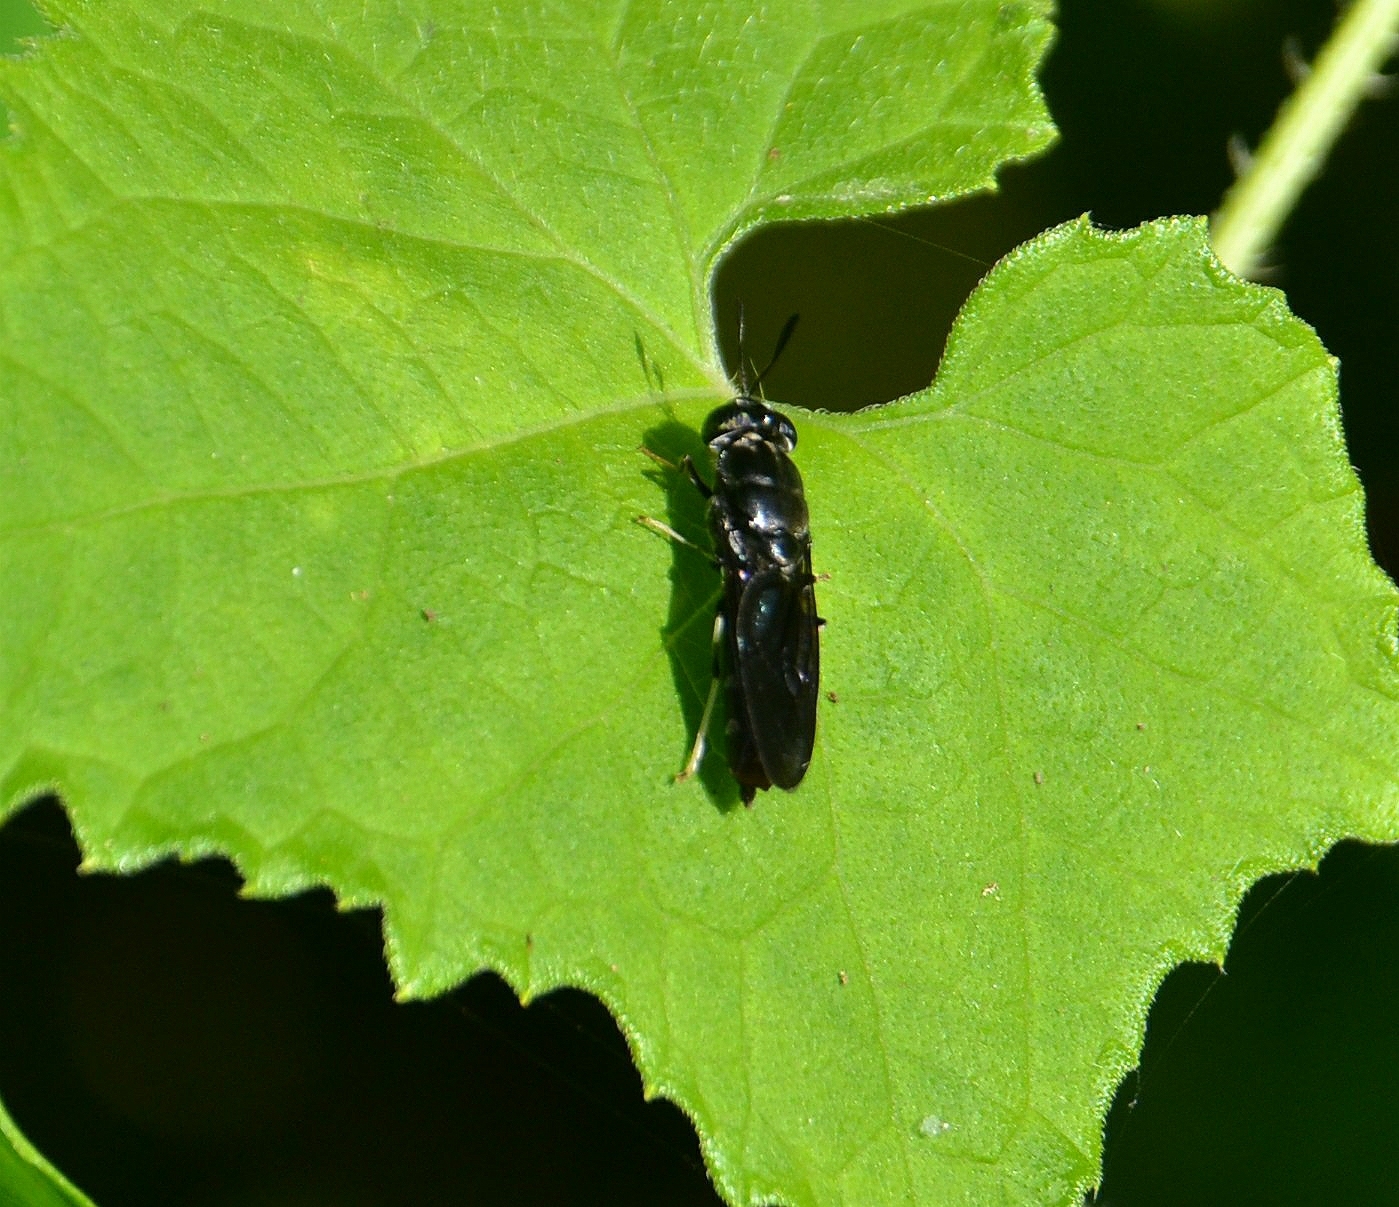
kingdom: Animalia
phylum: Arthropoda
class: Insecta
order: Diptera
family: Stratiomyidae
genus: Hermetia
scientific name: Hermetia illucens
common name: Black soldier fly
